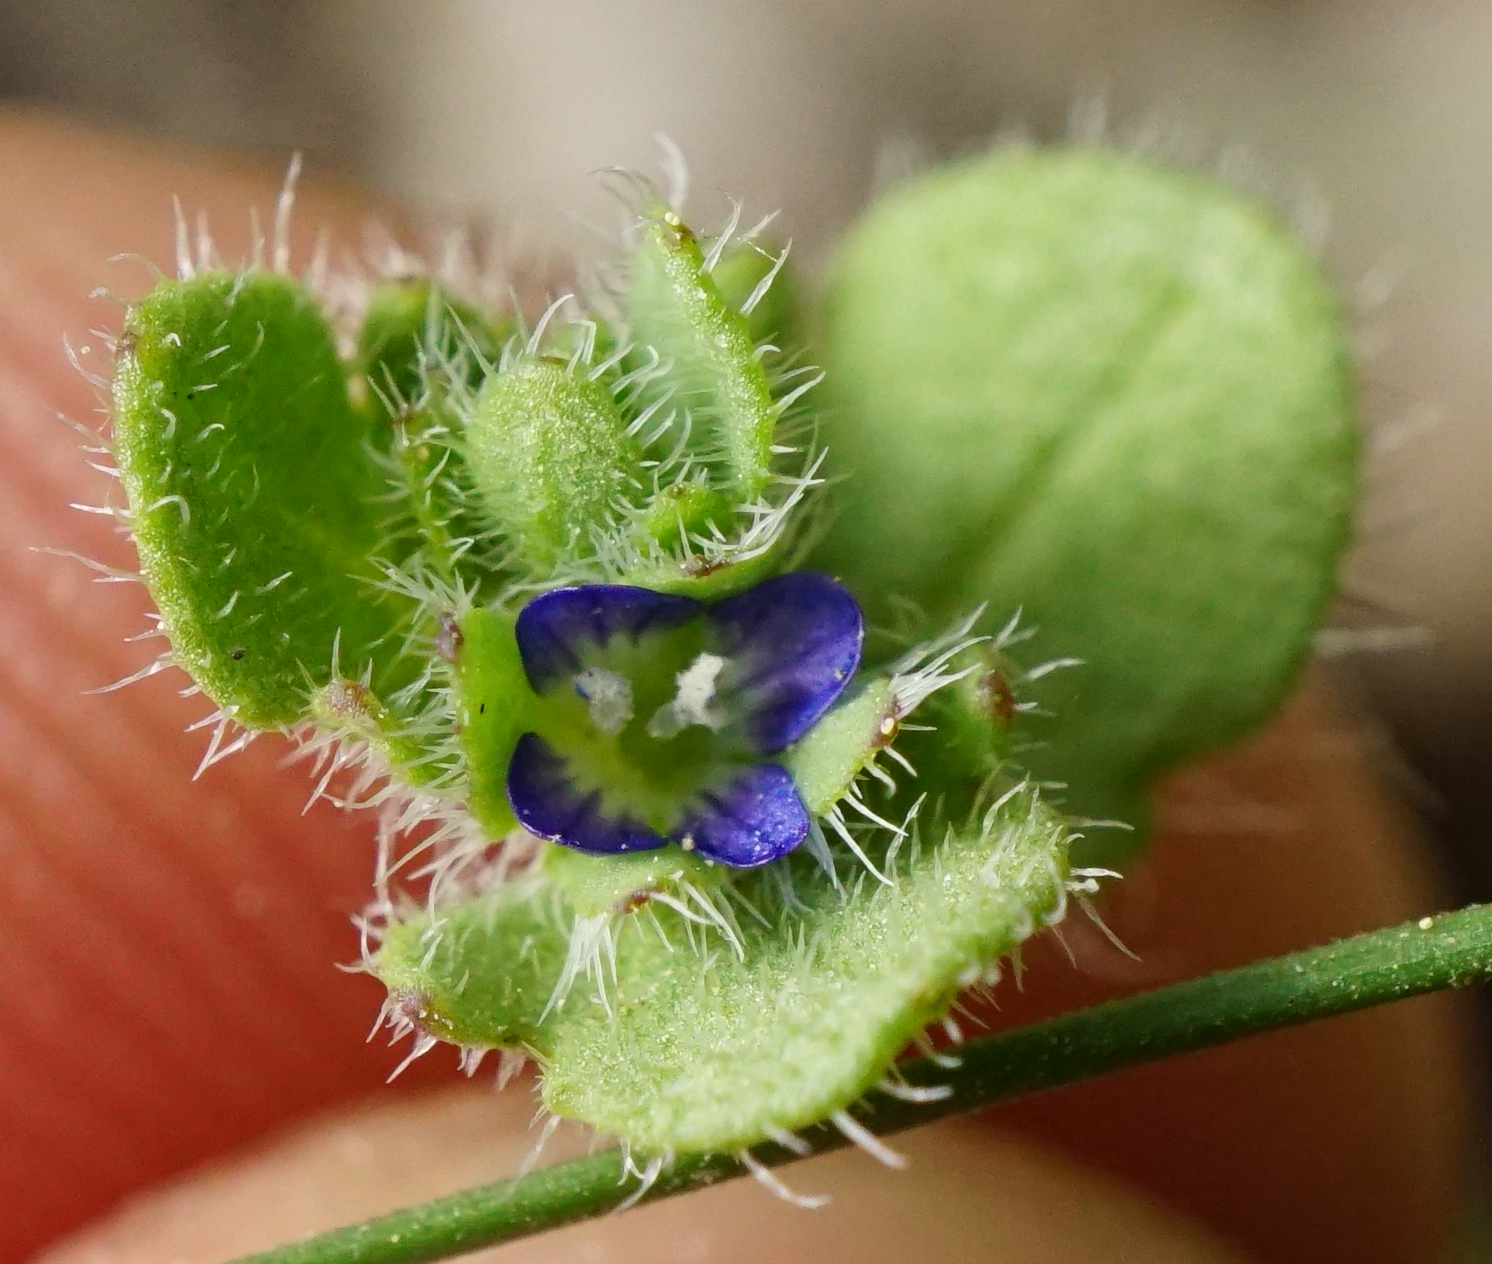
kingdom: Plantae
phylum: Tracheophyta
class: Magnoliopsida
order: Lamiales
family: Plantaginaceae
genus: Veronica
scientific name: Veronica triloba
